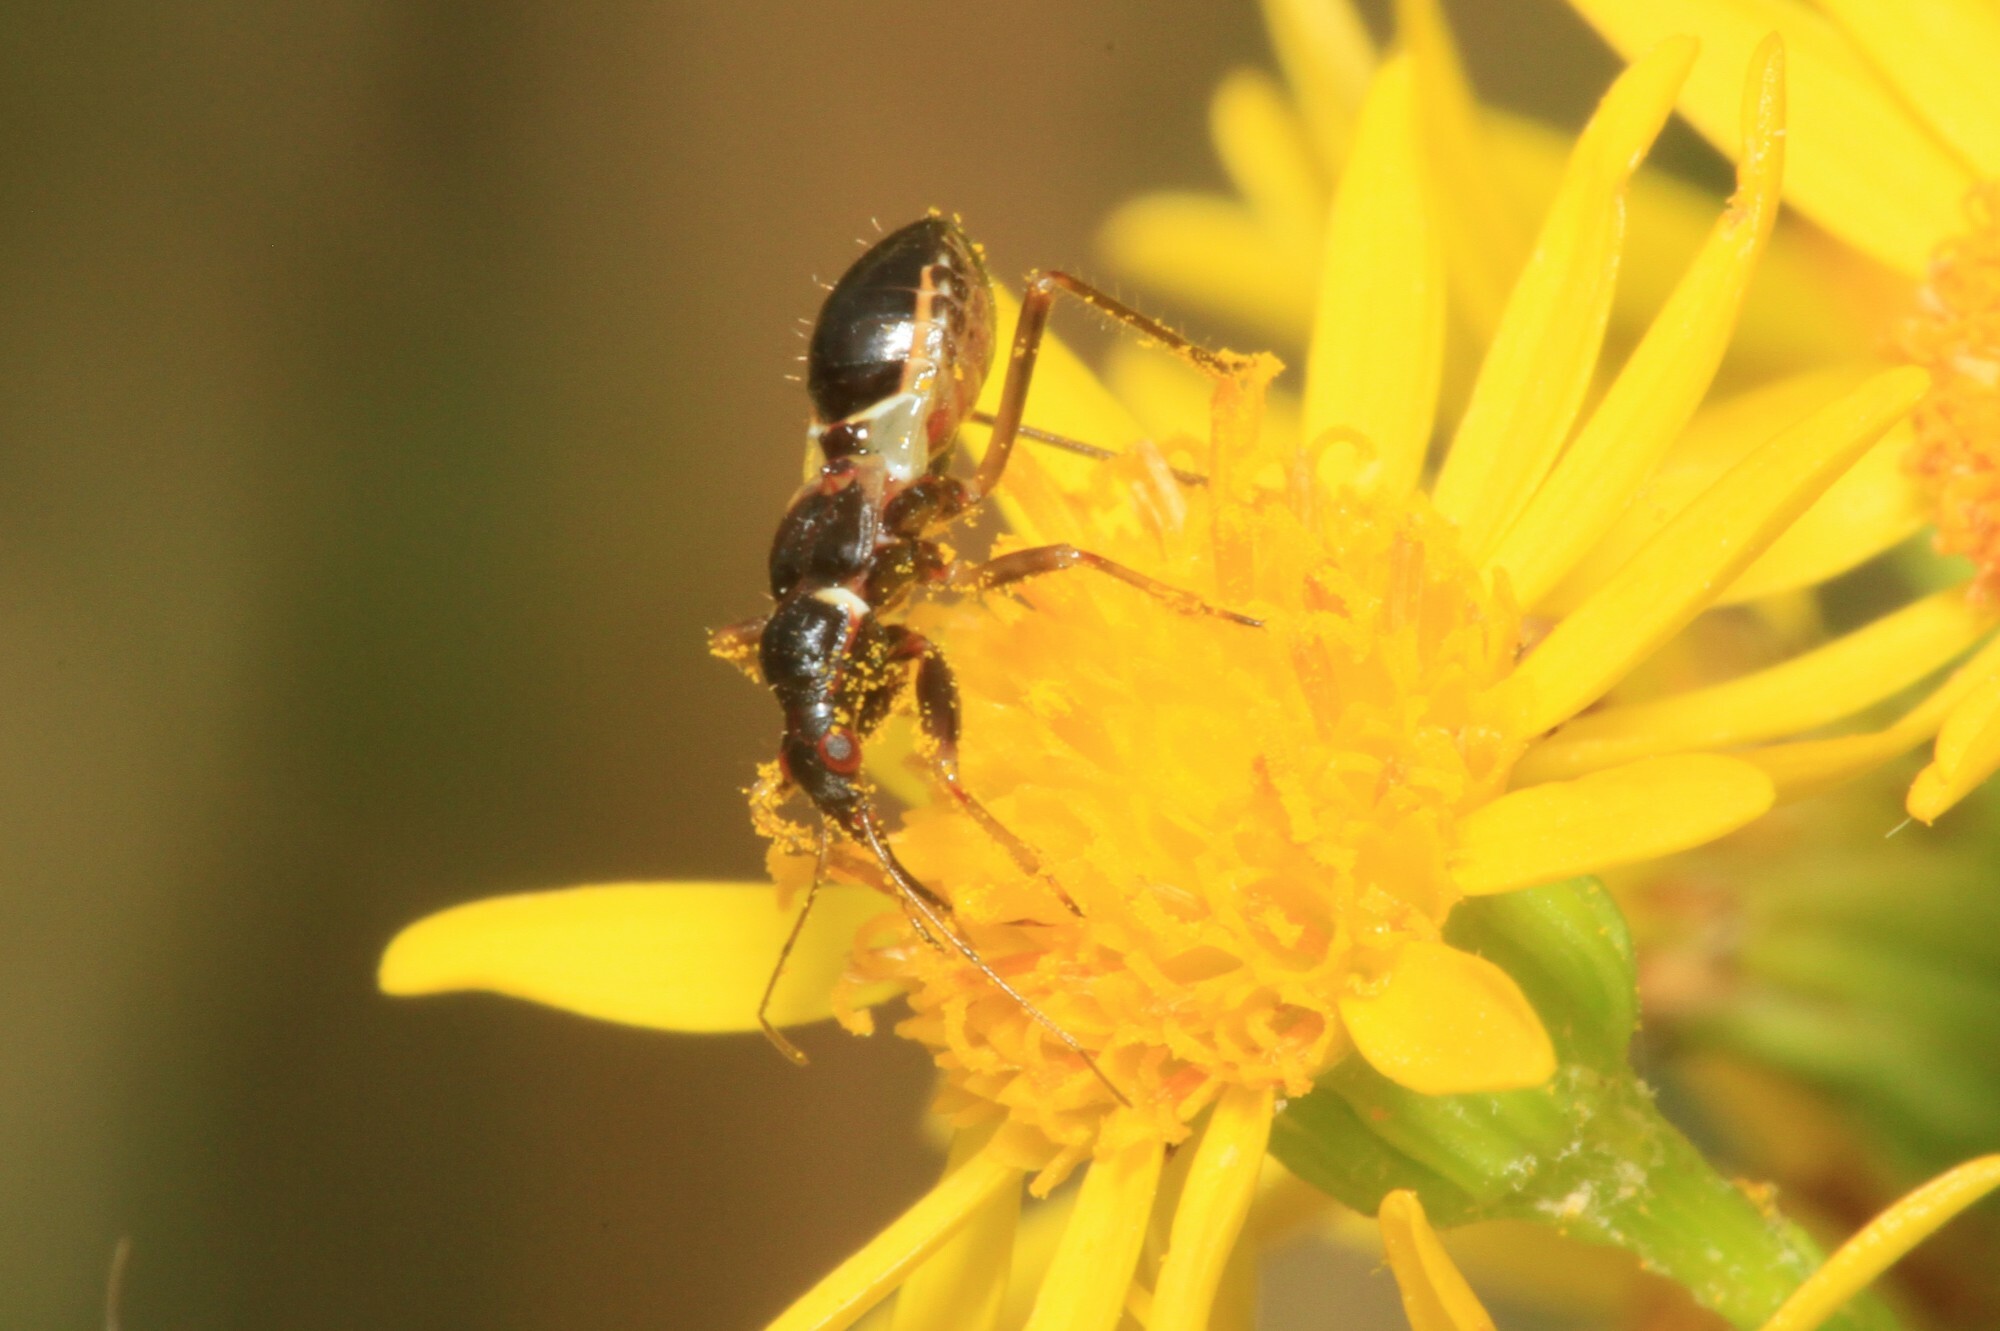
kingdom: Animalia
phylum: Arthropoda
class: Insecta
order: Hemiptera
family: Nabidae
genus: Himacerus
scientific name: Himacerus mirmicoides
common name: Ant damsel bug
